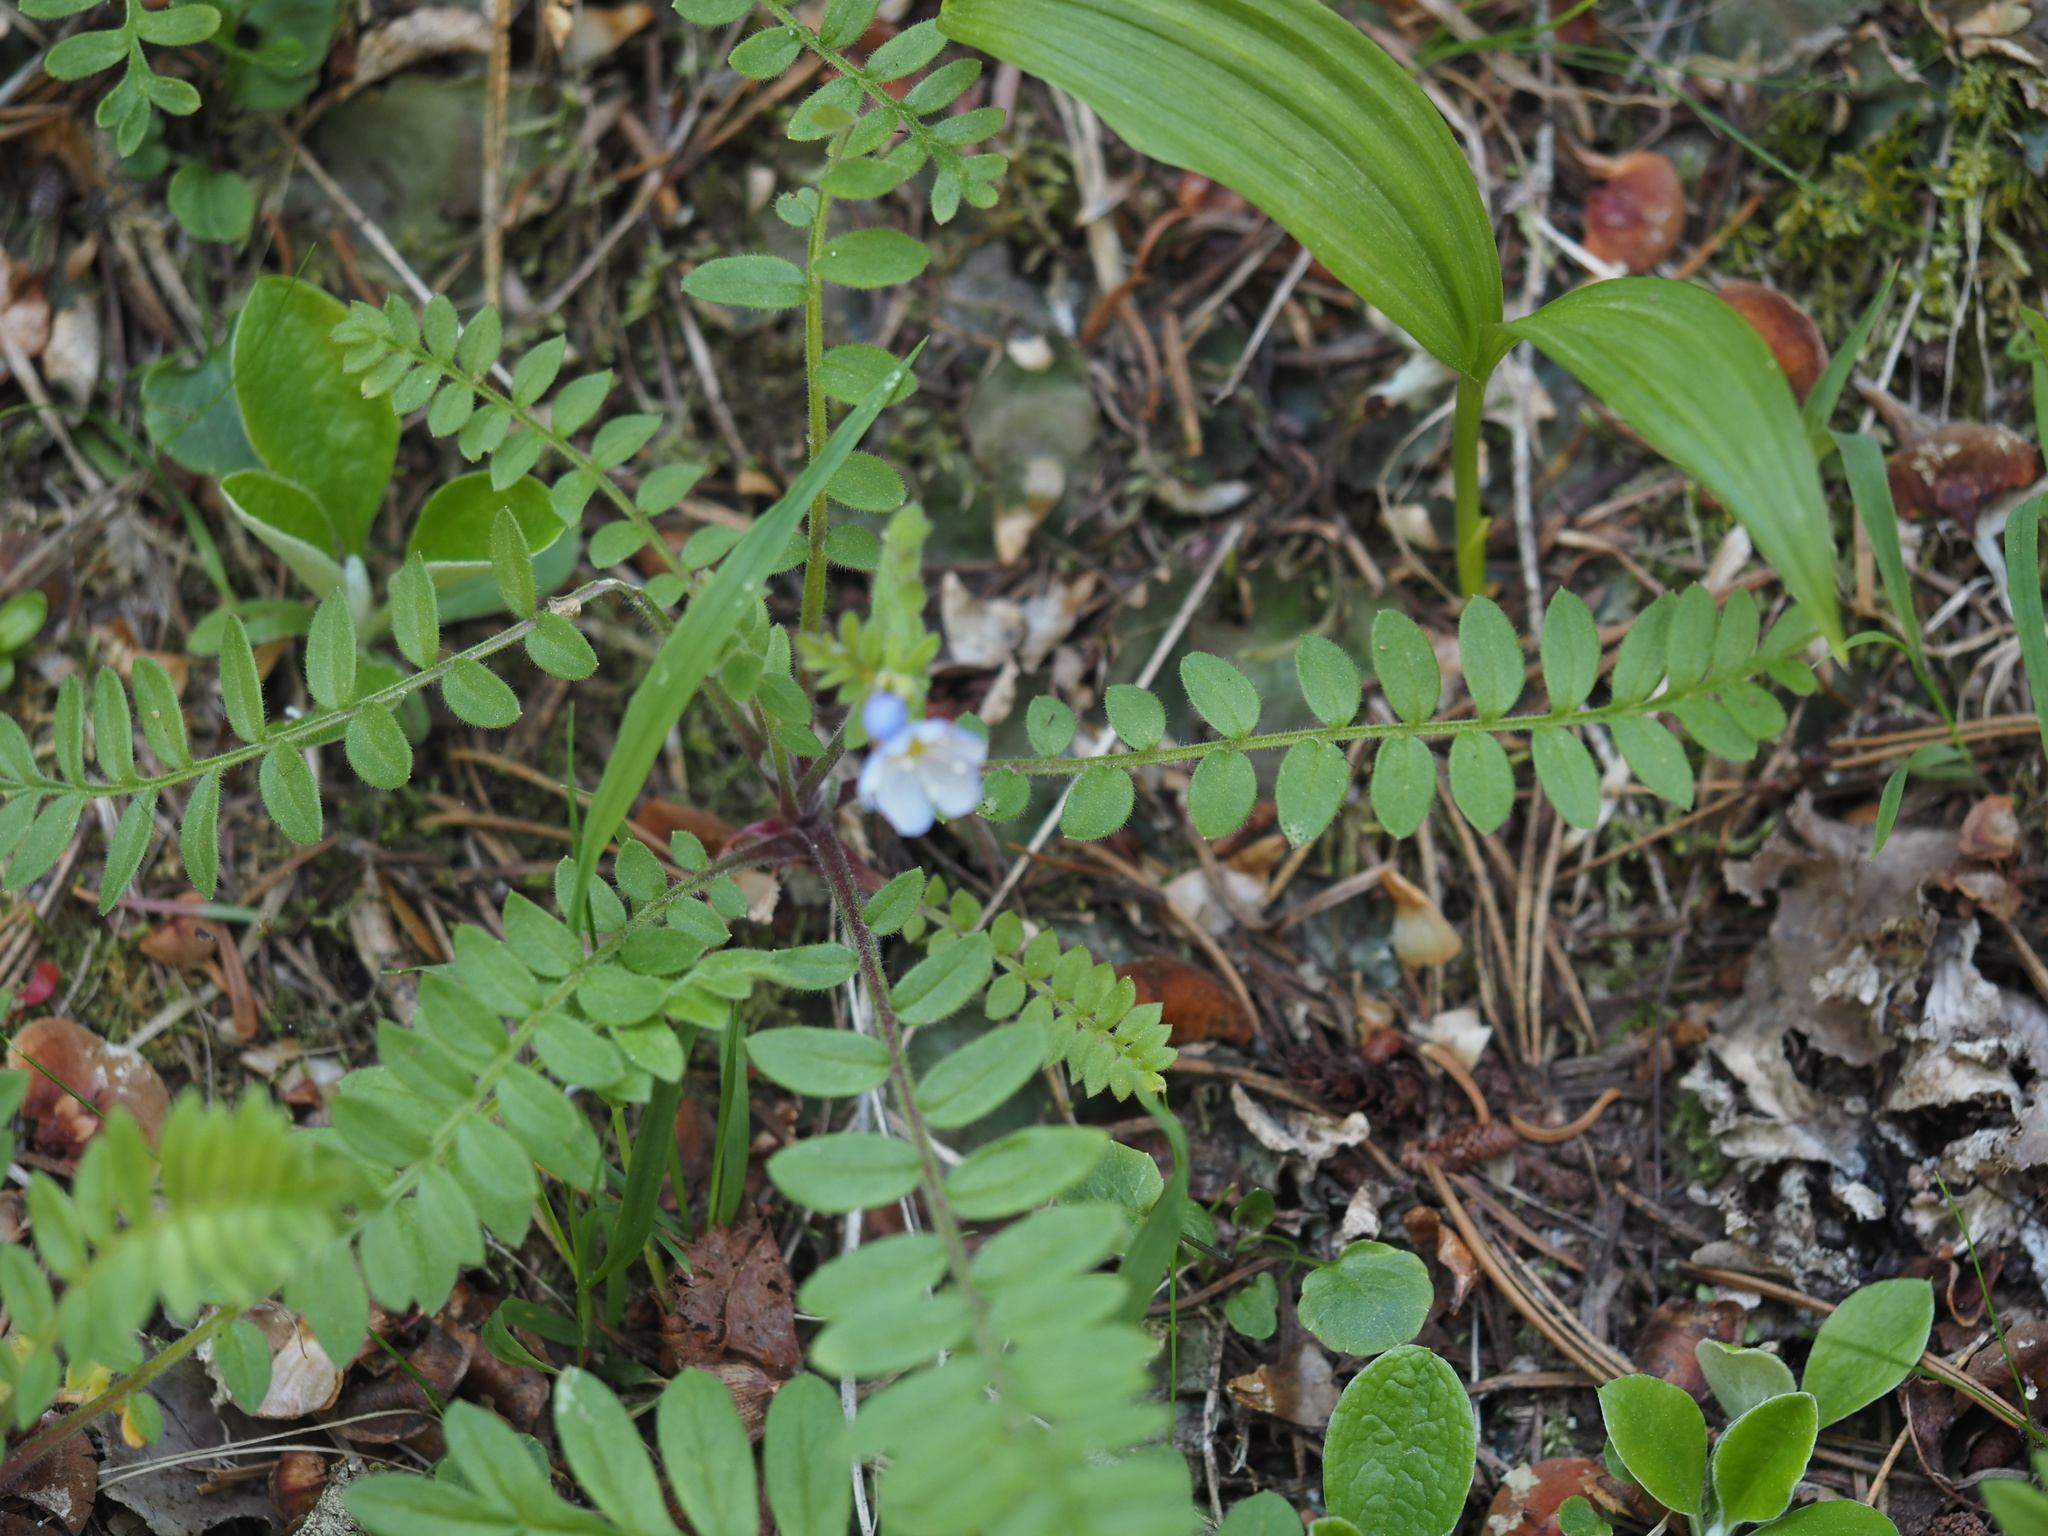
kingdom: Plantae
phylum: Tracheophyta
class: Magnoliopsida
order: Ericales
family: Polemoniaceae
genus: Polemonium
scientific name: Polemonium californicum
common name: California jacob's ladder
